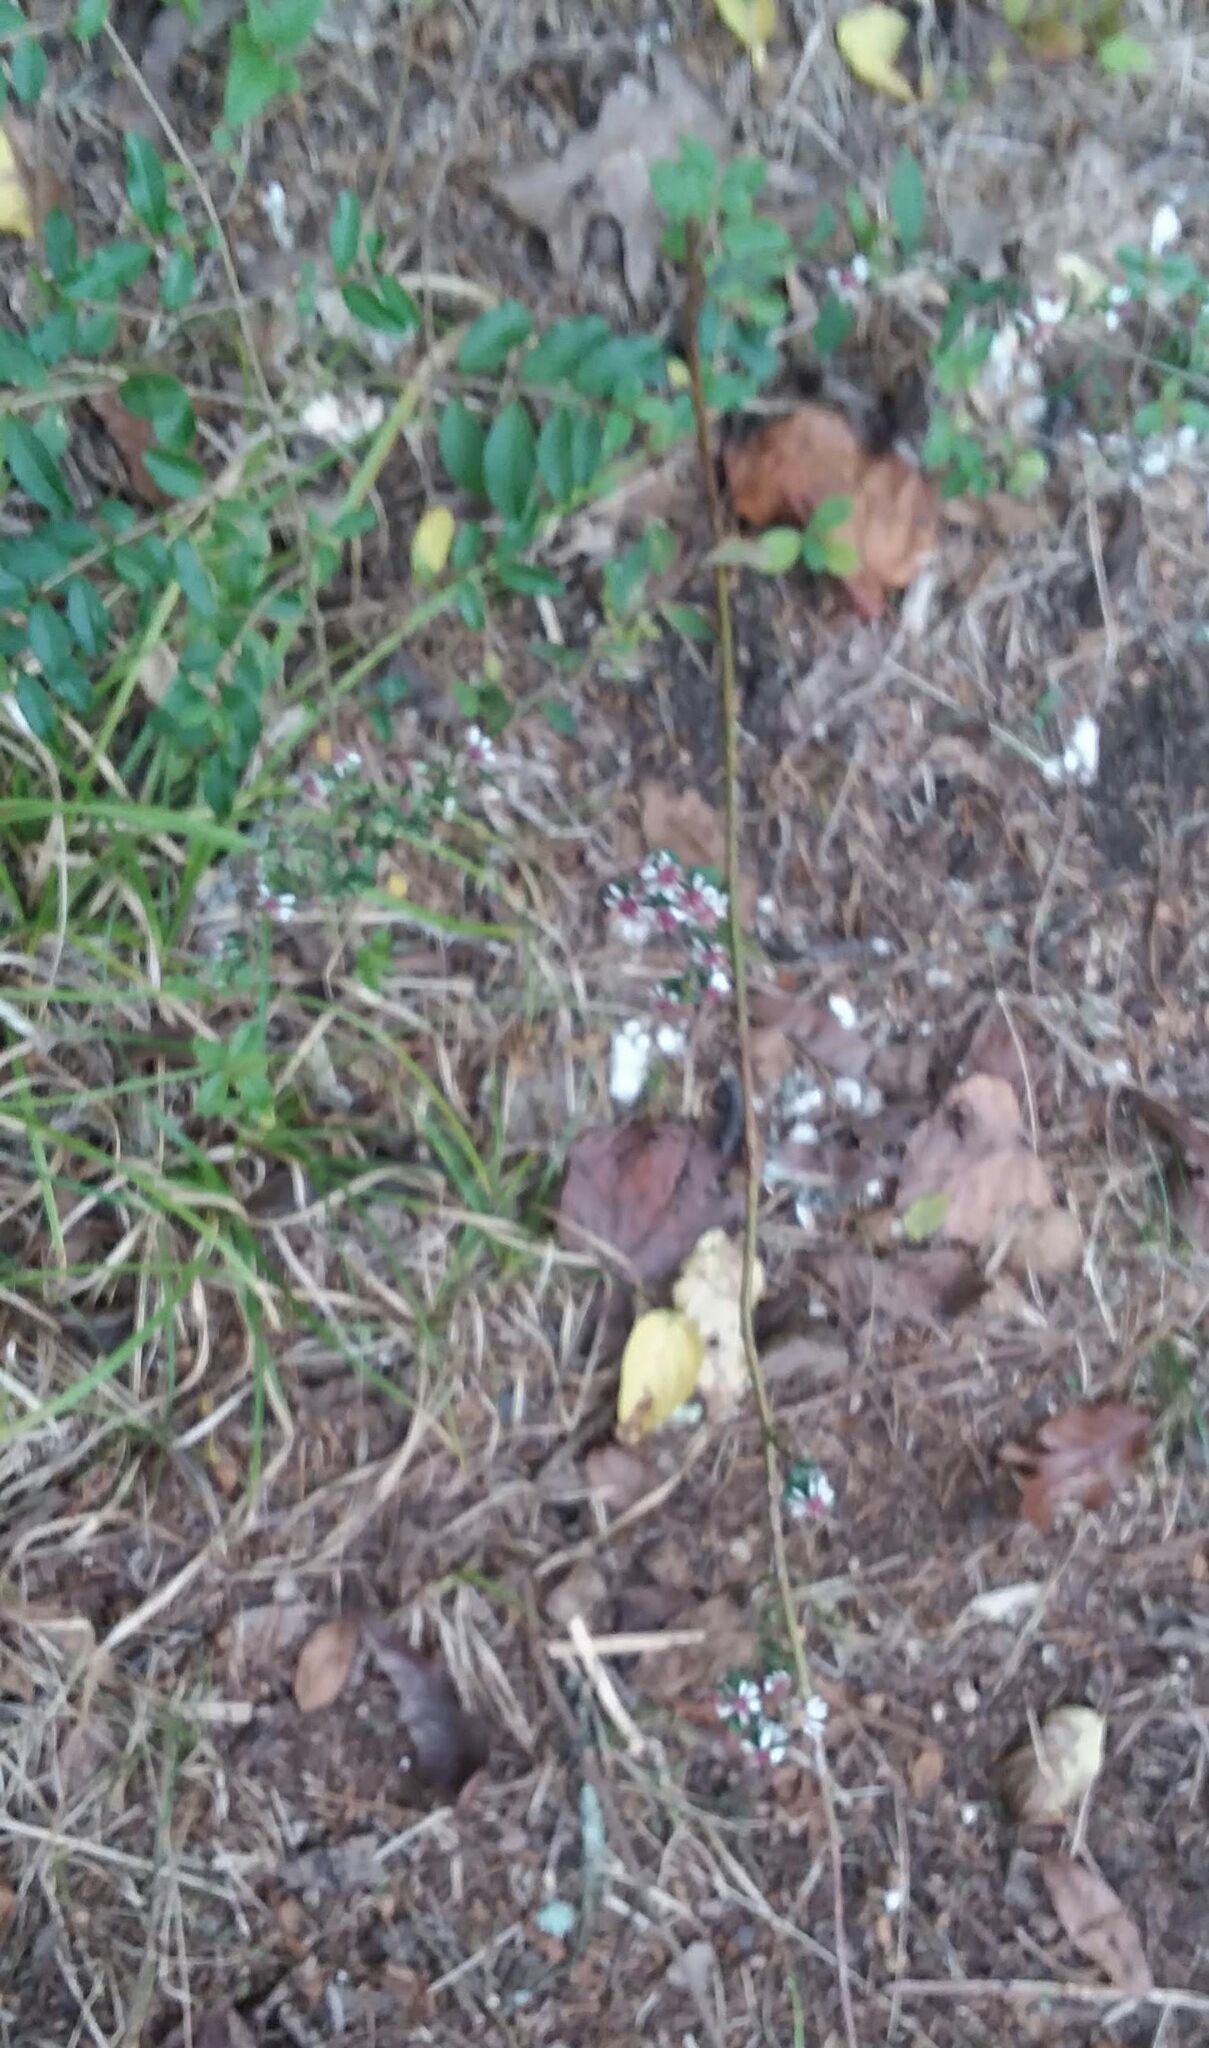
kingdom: Plantae
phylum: Tracheophyta
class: Magnoliopsida
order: Asterales
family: Asteraceae
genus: Symphyotrichum
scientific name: Symphyotrichum lateriflorum
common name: Calico aster
